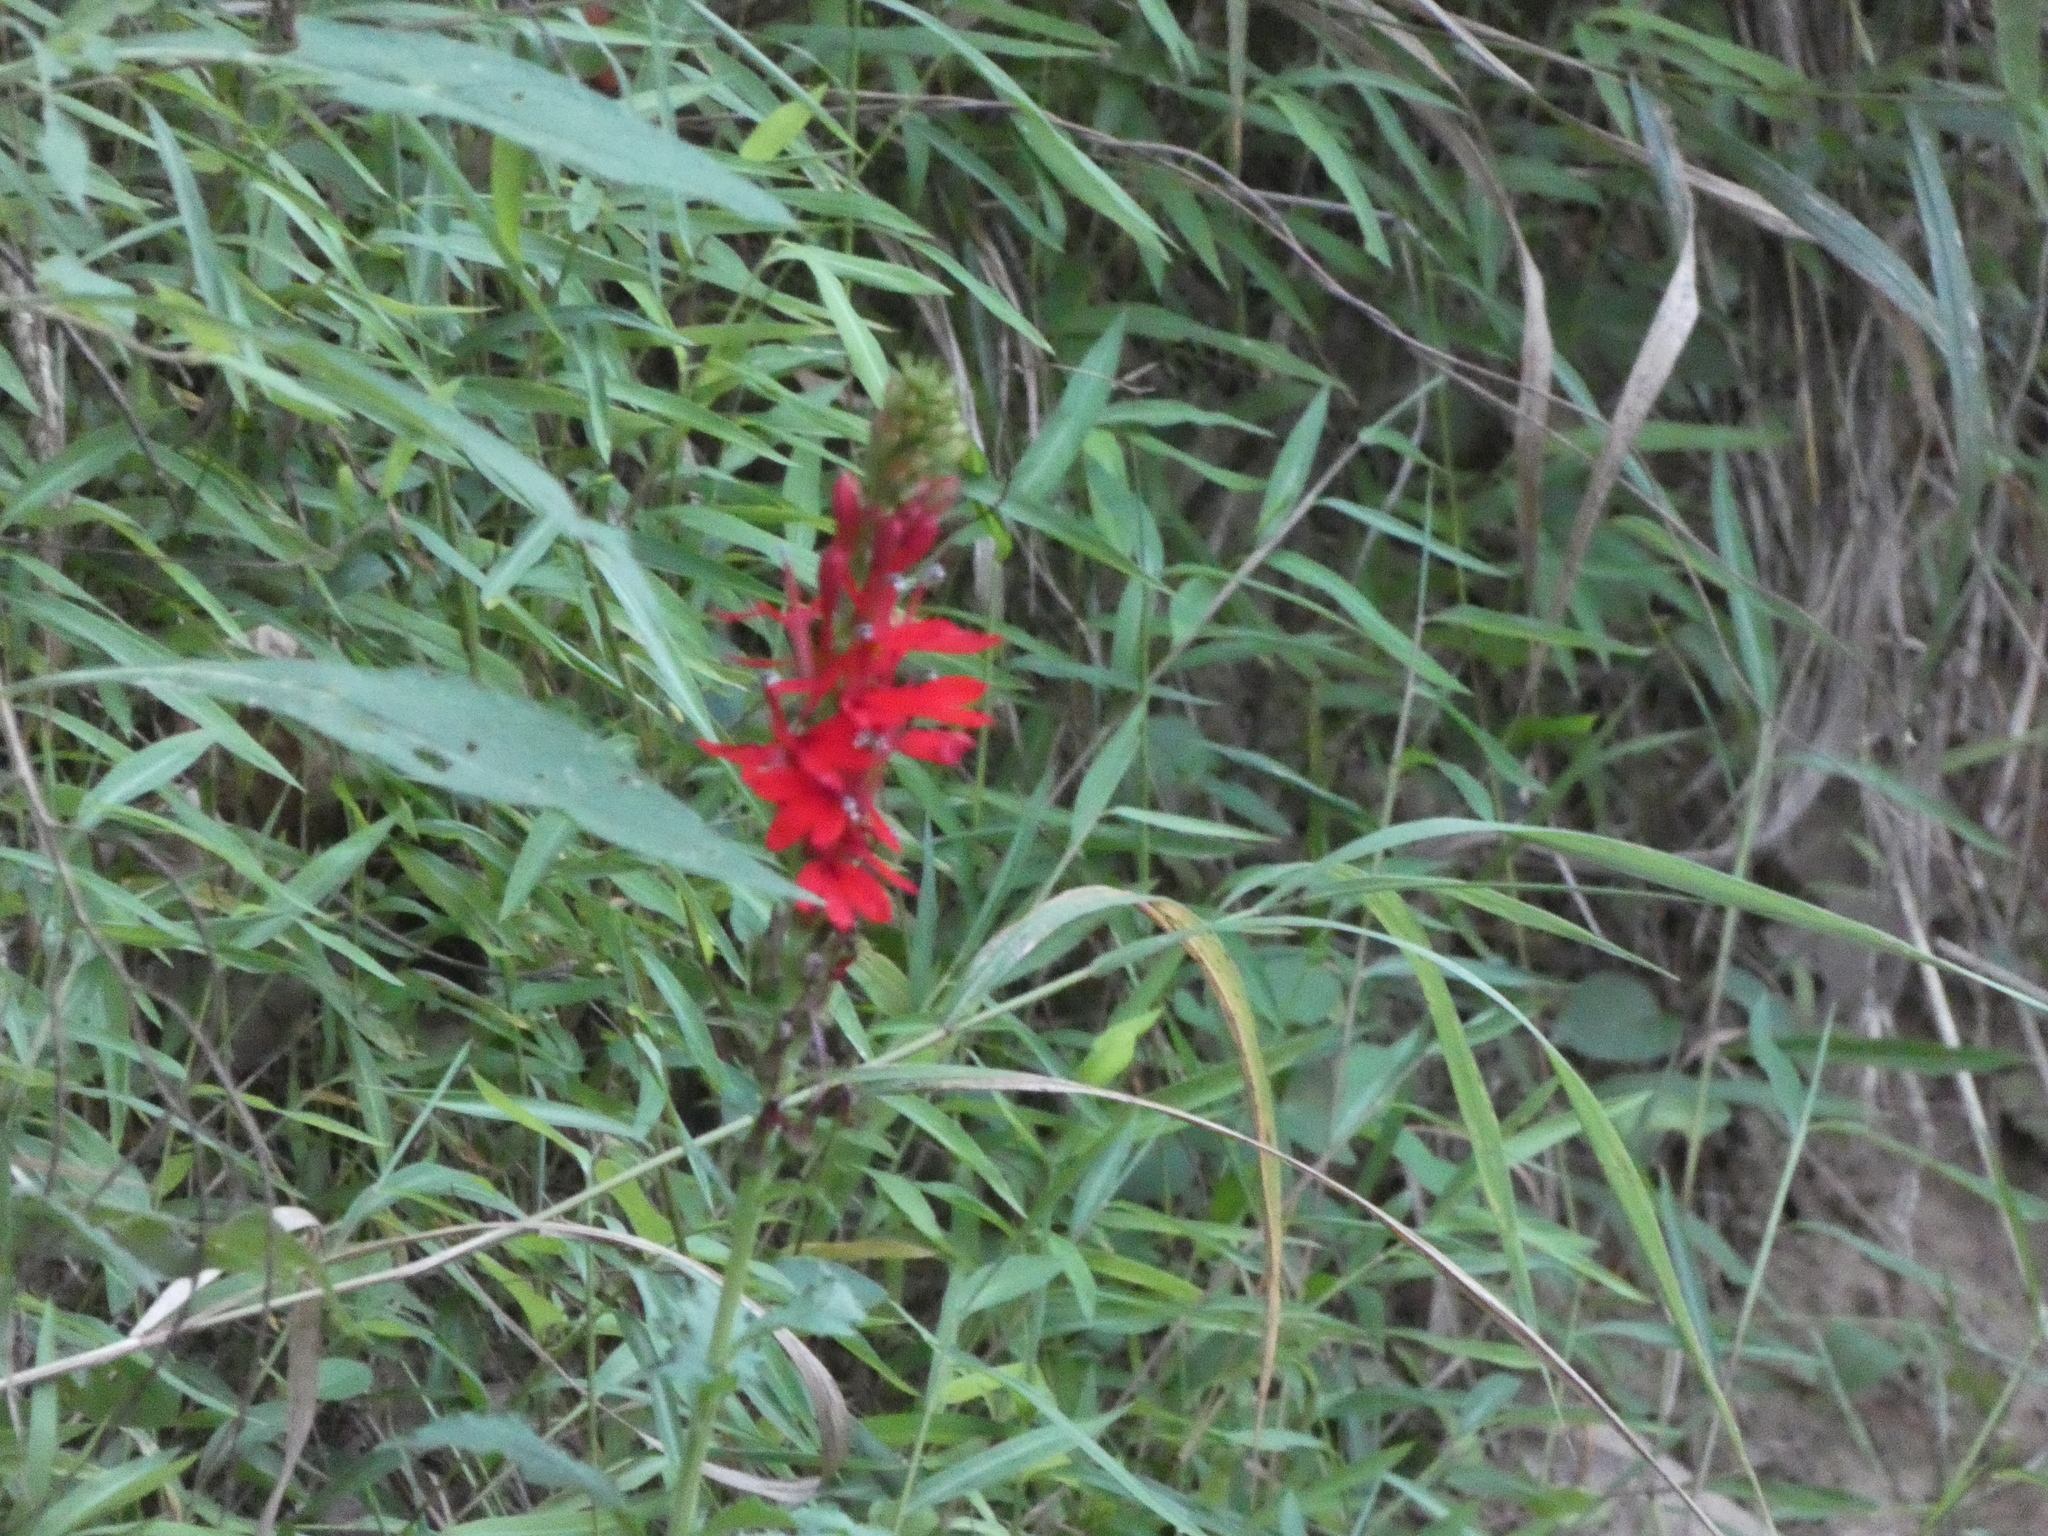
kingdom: Plantae
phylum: Tracheophyta
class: Magnoliopsida
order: Asterales
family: Campanulaceae
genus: Lobelia
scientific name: Lobelia cardinalis
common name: Cardinal flower
